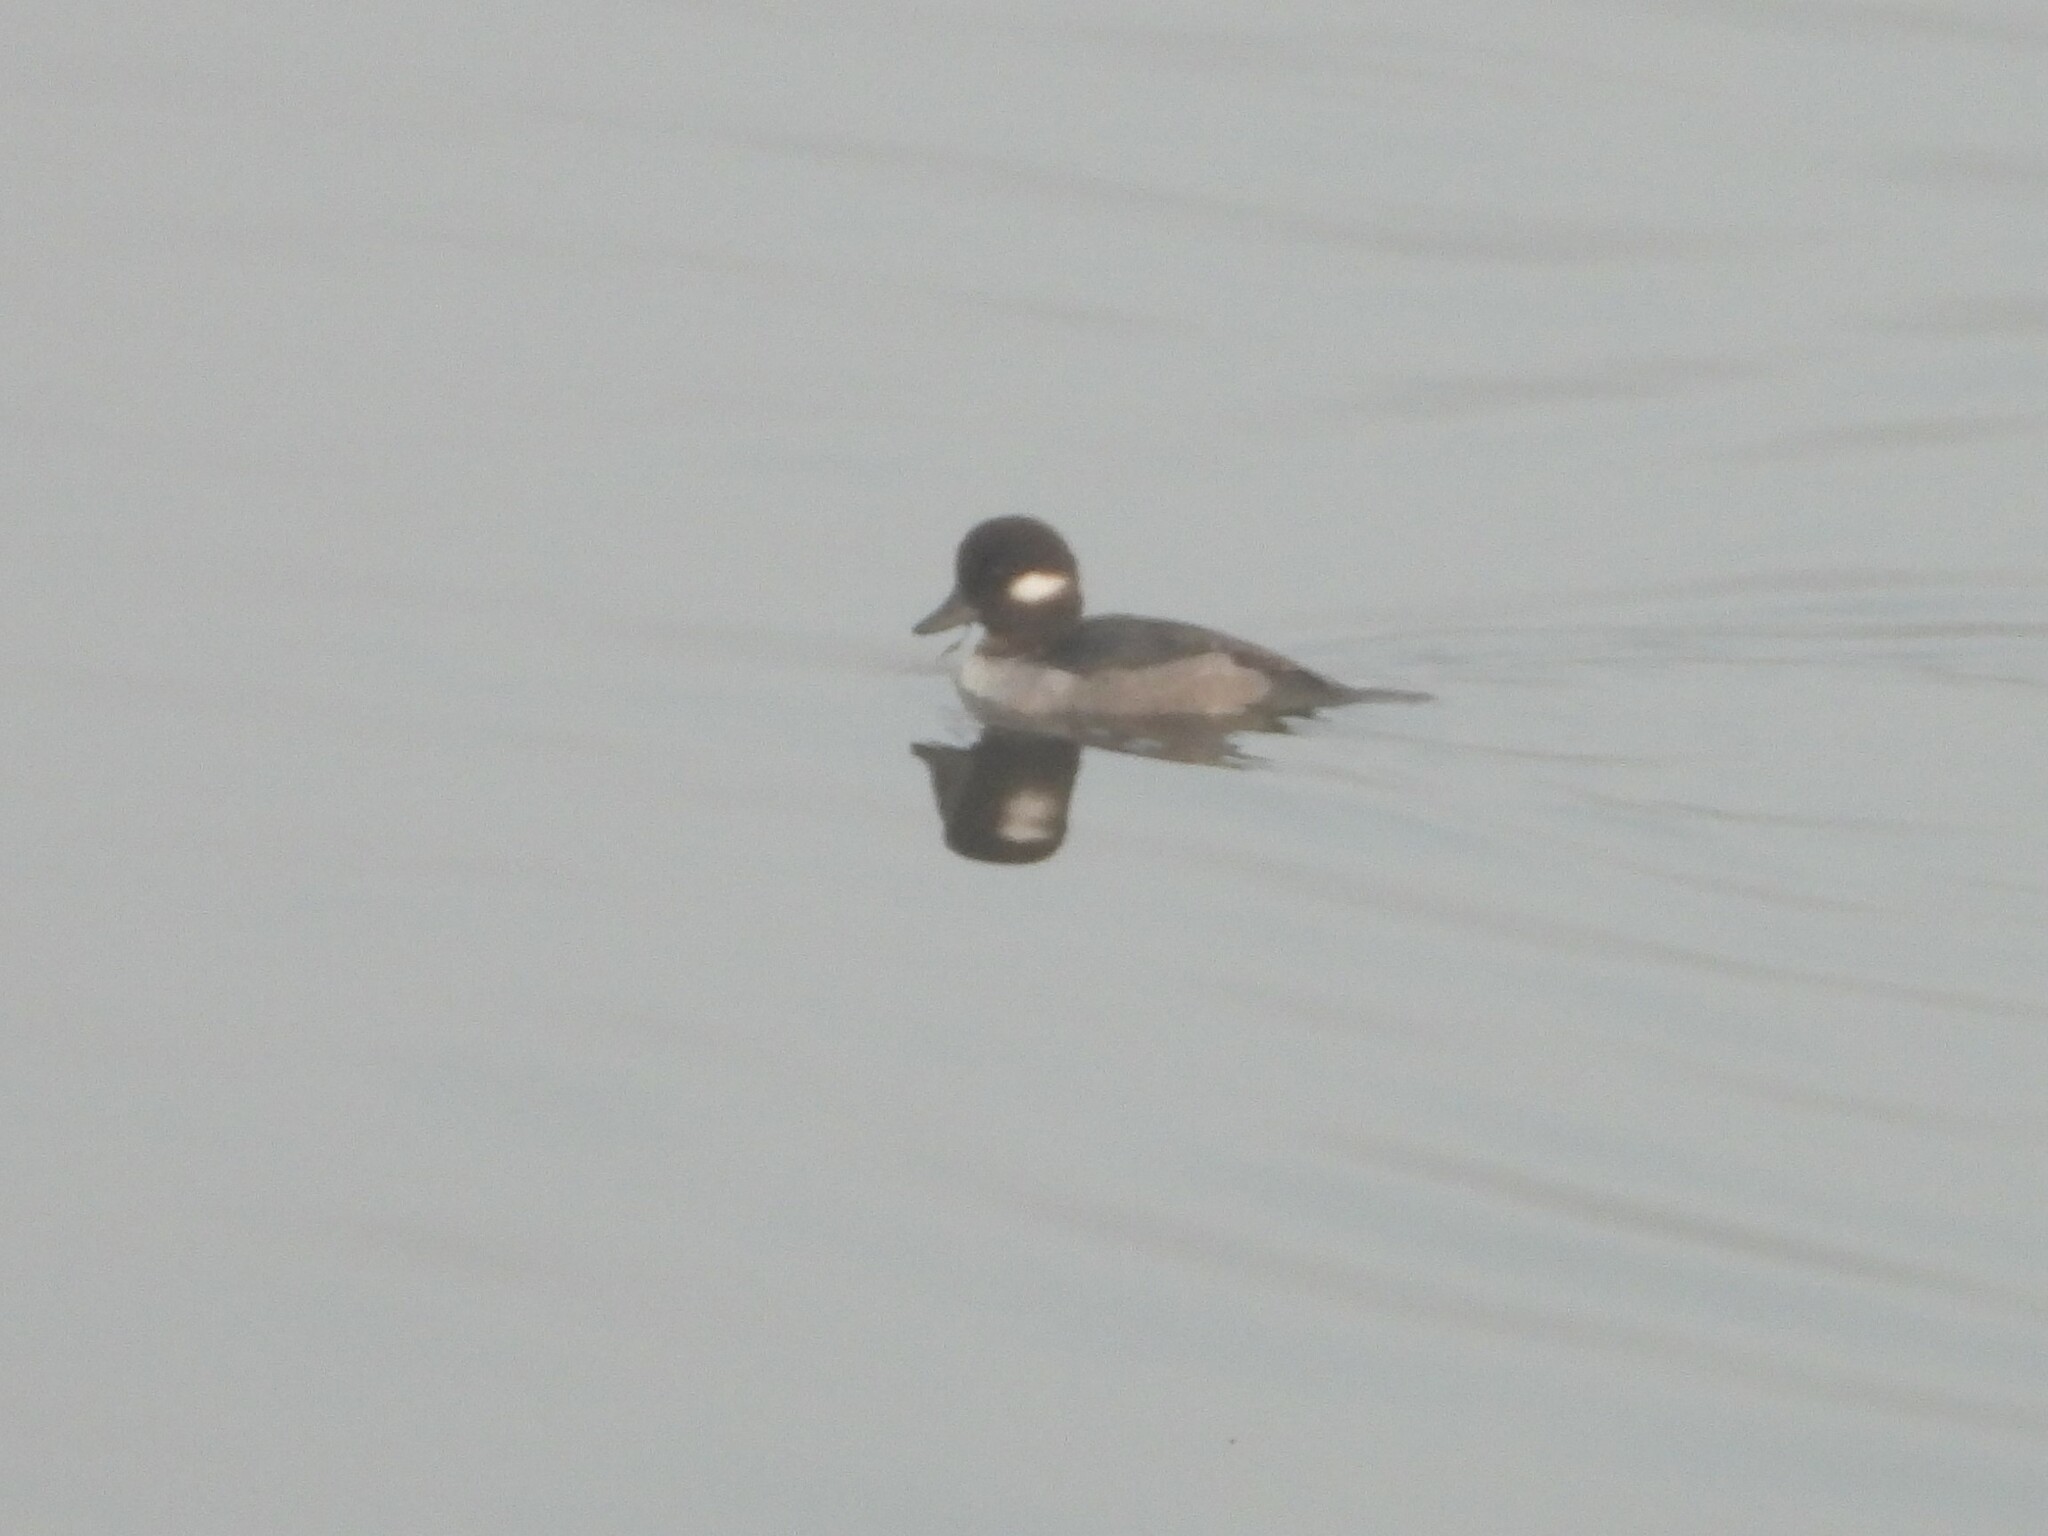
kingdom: Animalia
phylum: Chordata
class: Aves
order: Anseriformes
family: Anatidae
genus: Bucephala
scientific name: Bucephala albeola
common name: Bufflehead
